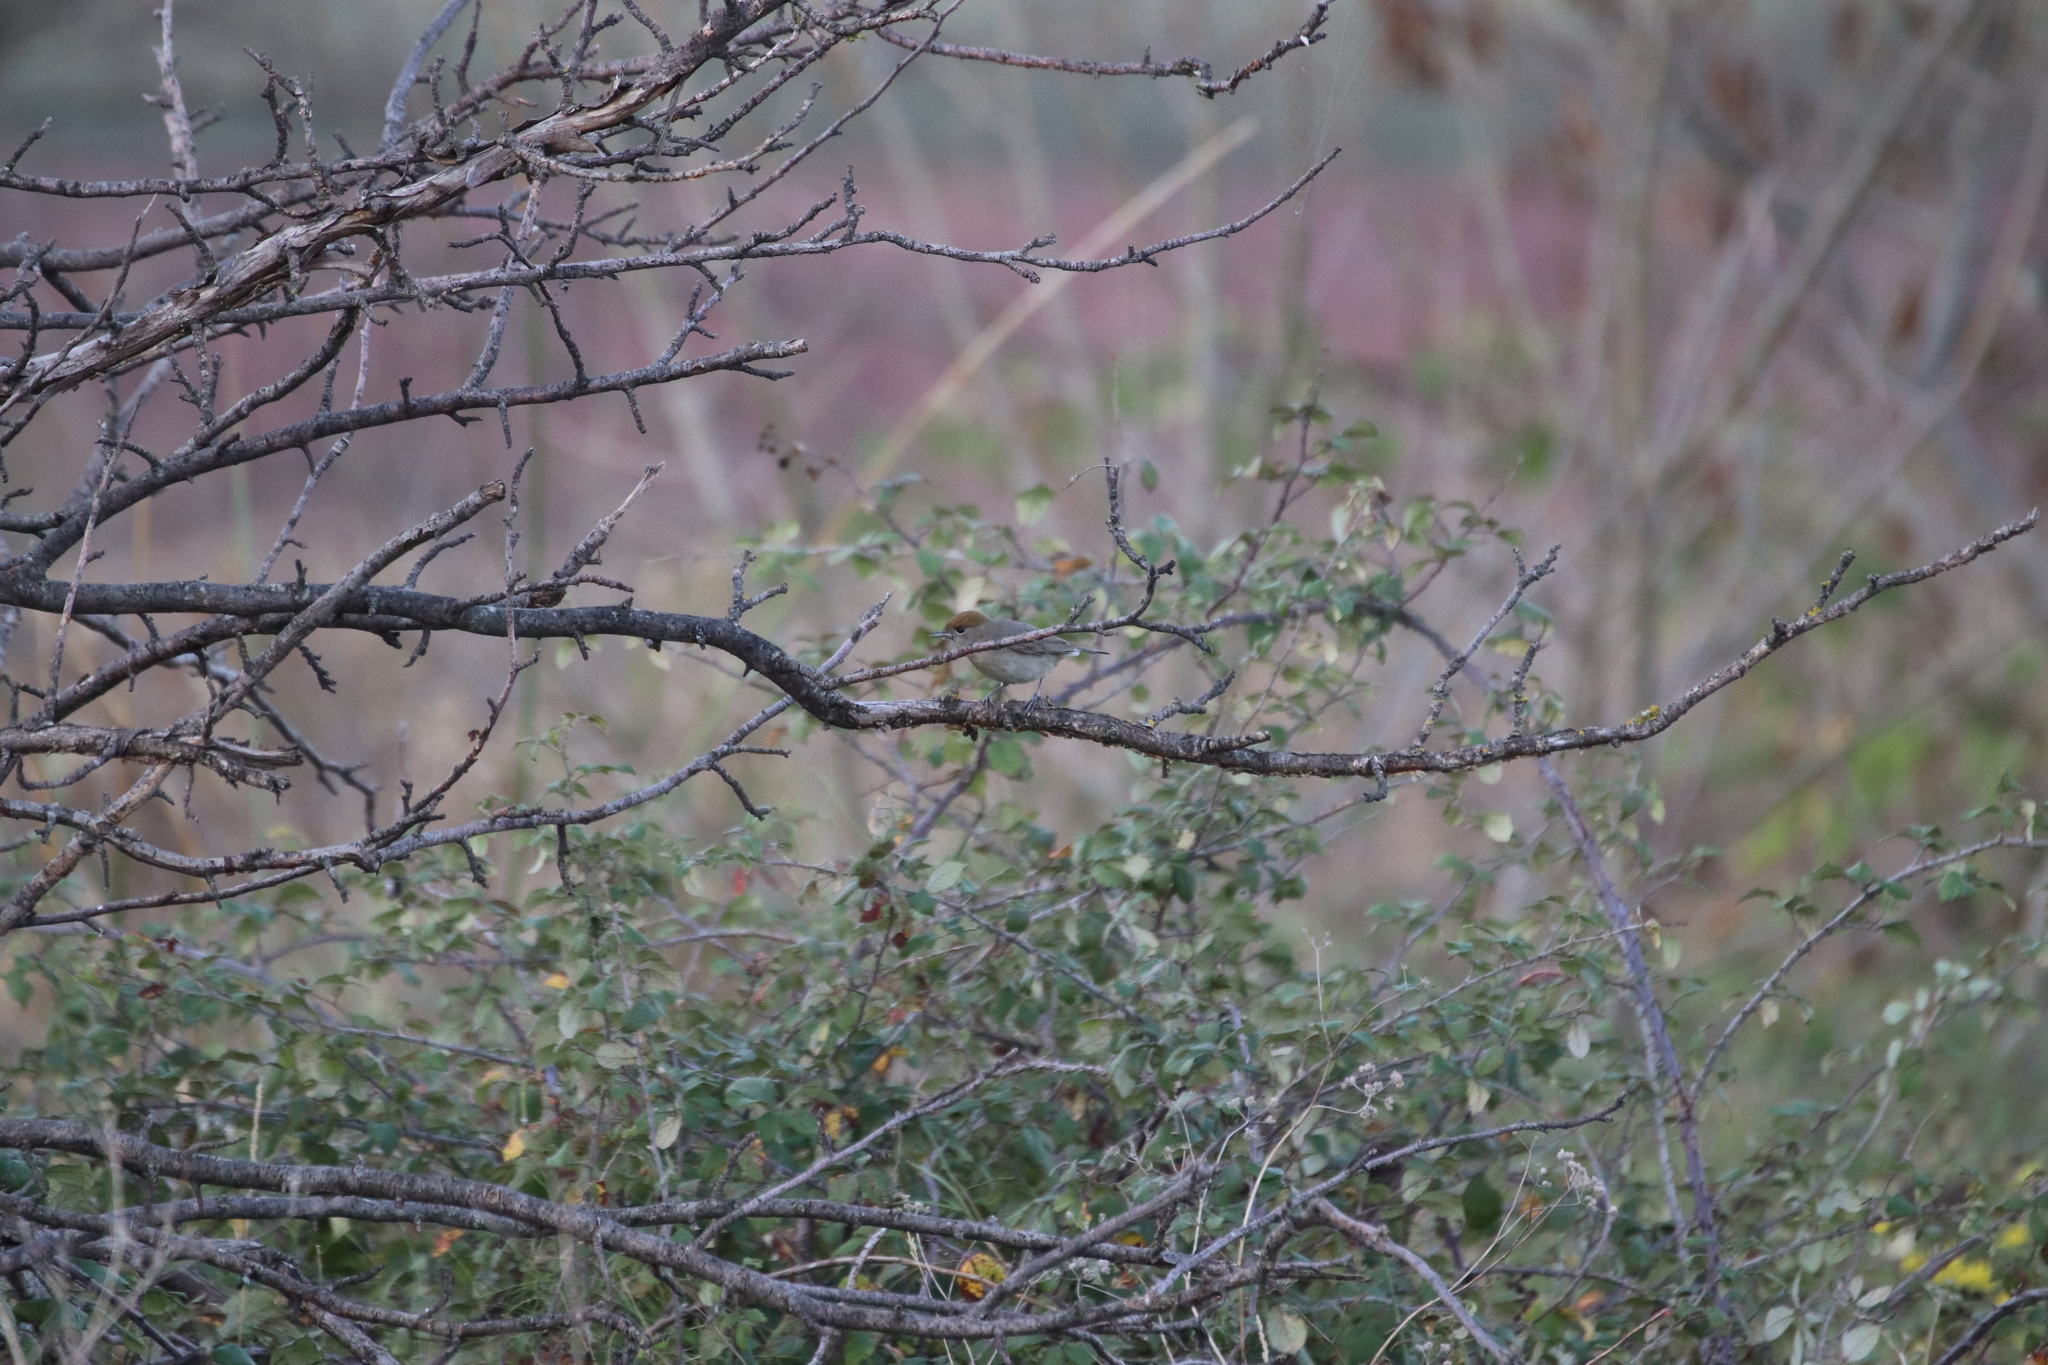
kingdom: Animalia
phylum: Chordata
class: Aves
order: Passeriformes
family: Sylviidae
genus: Sylvia
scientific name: Sylvia atricapilla
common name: Eurasian blackcap
